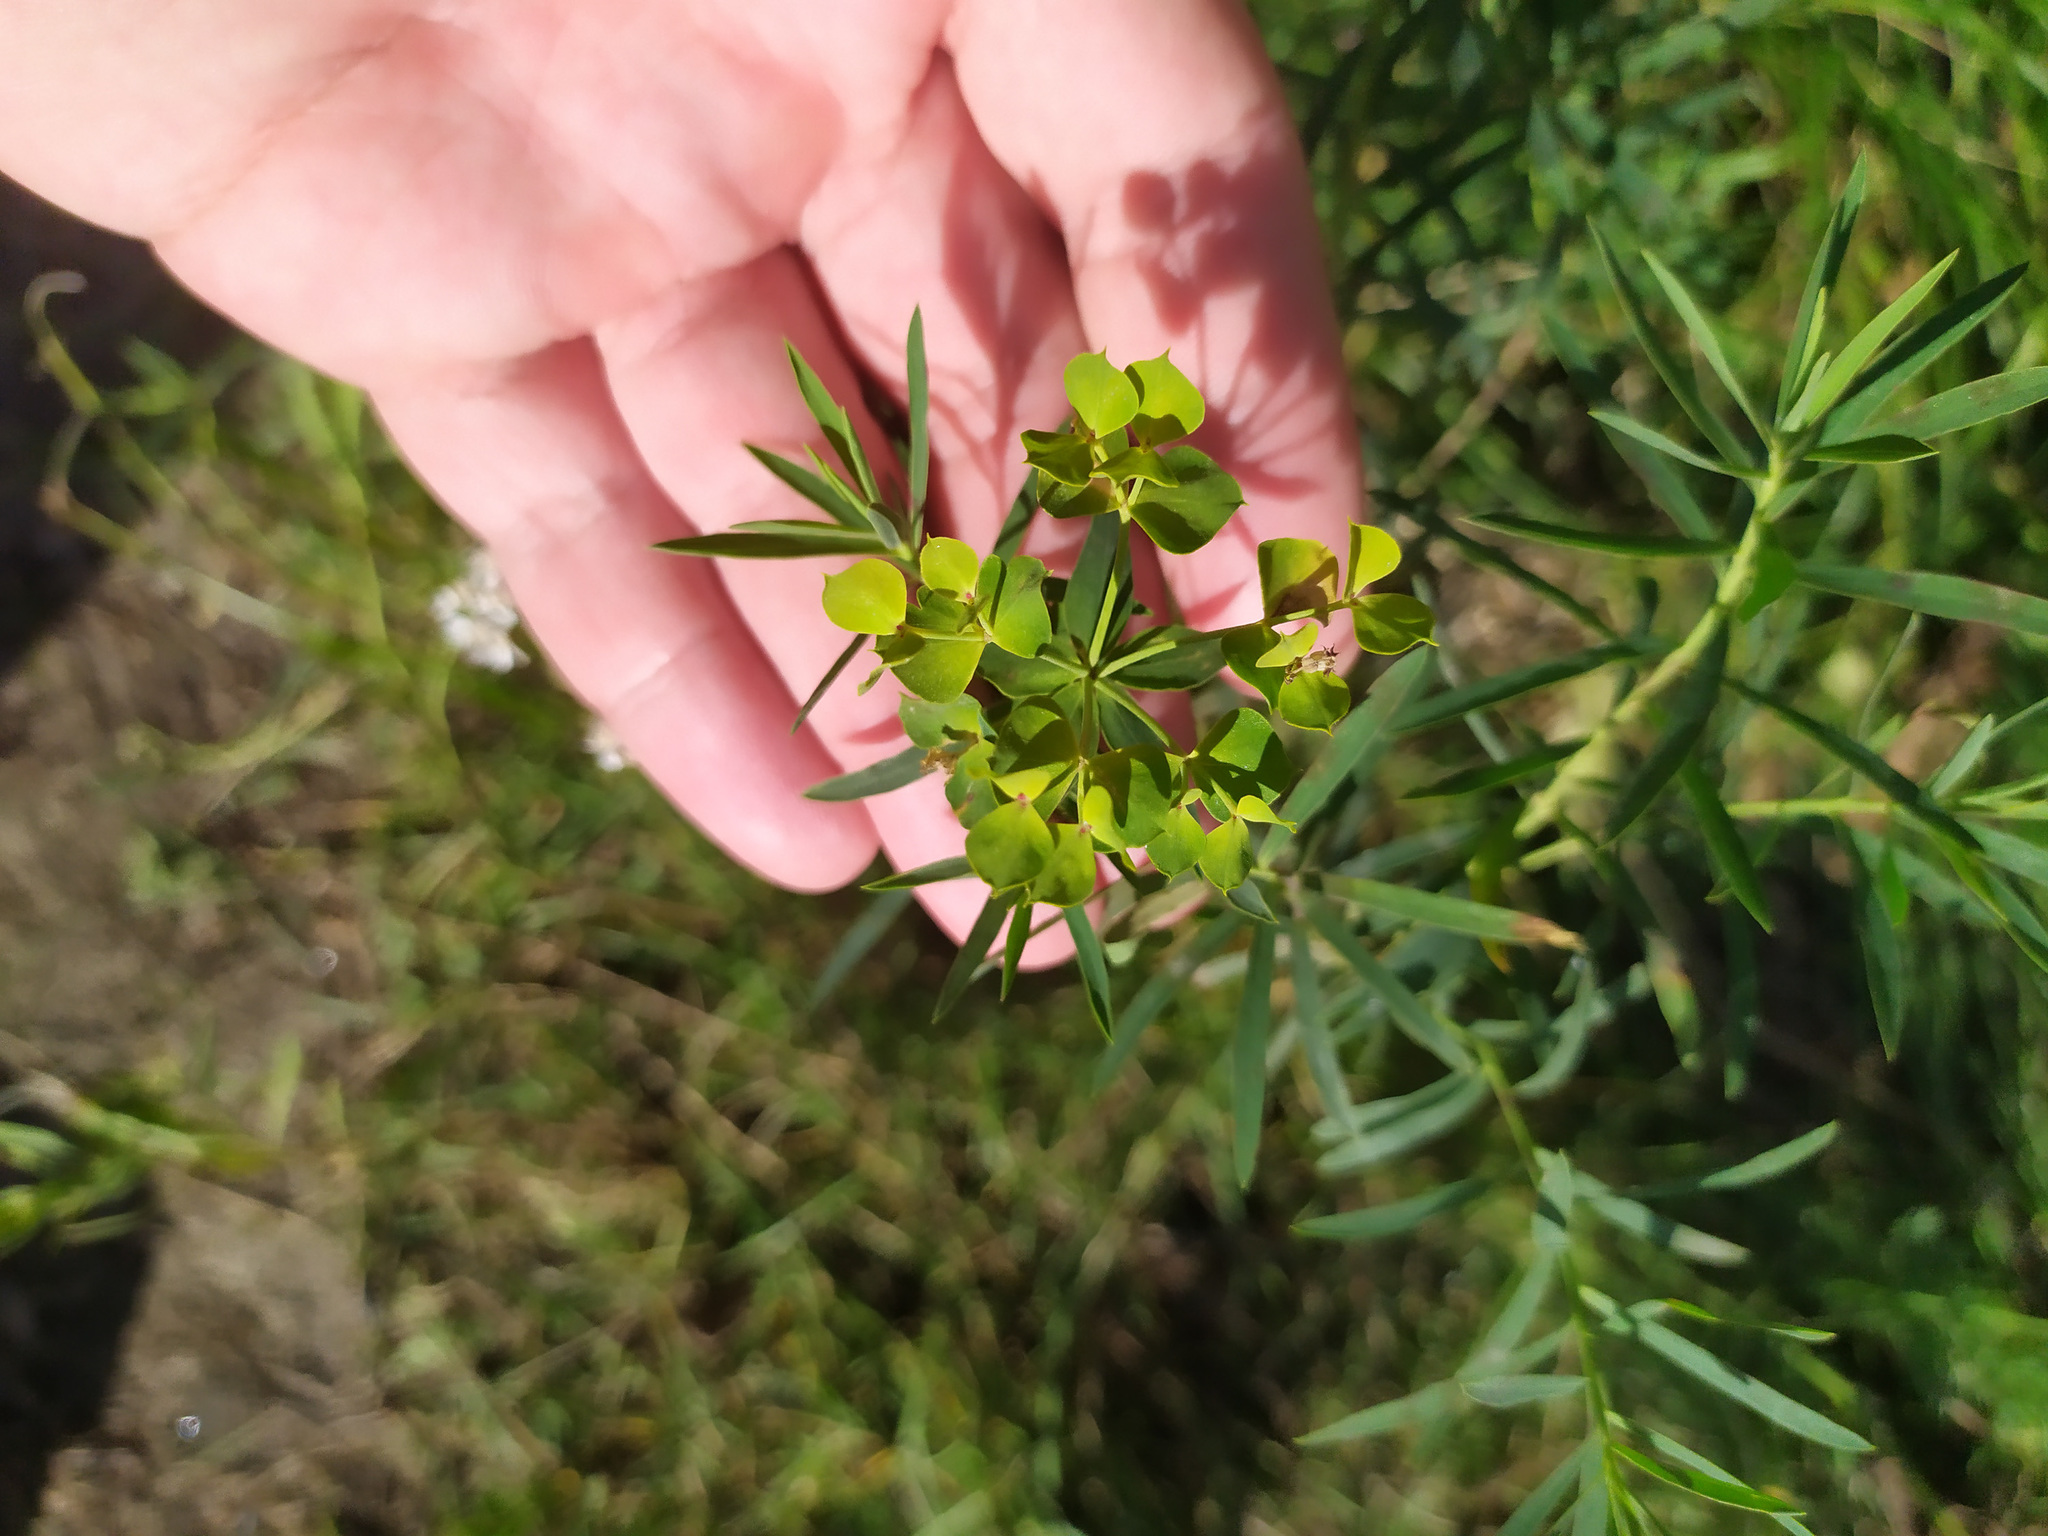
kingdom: Plantae
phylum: Tracheophyta
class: Magnoliopsida
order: Malpighiales
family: Euphorbiaceae
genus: Euphorbia
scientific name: Euphorbia virgata
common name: Leafy spurge
